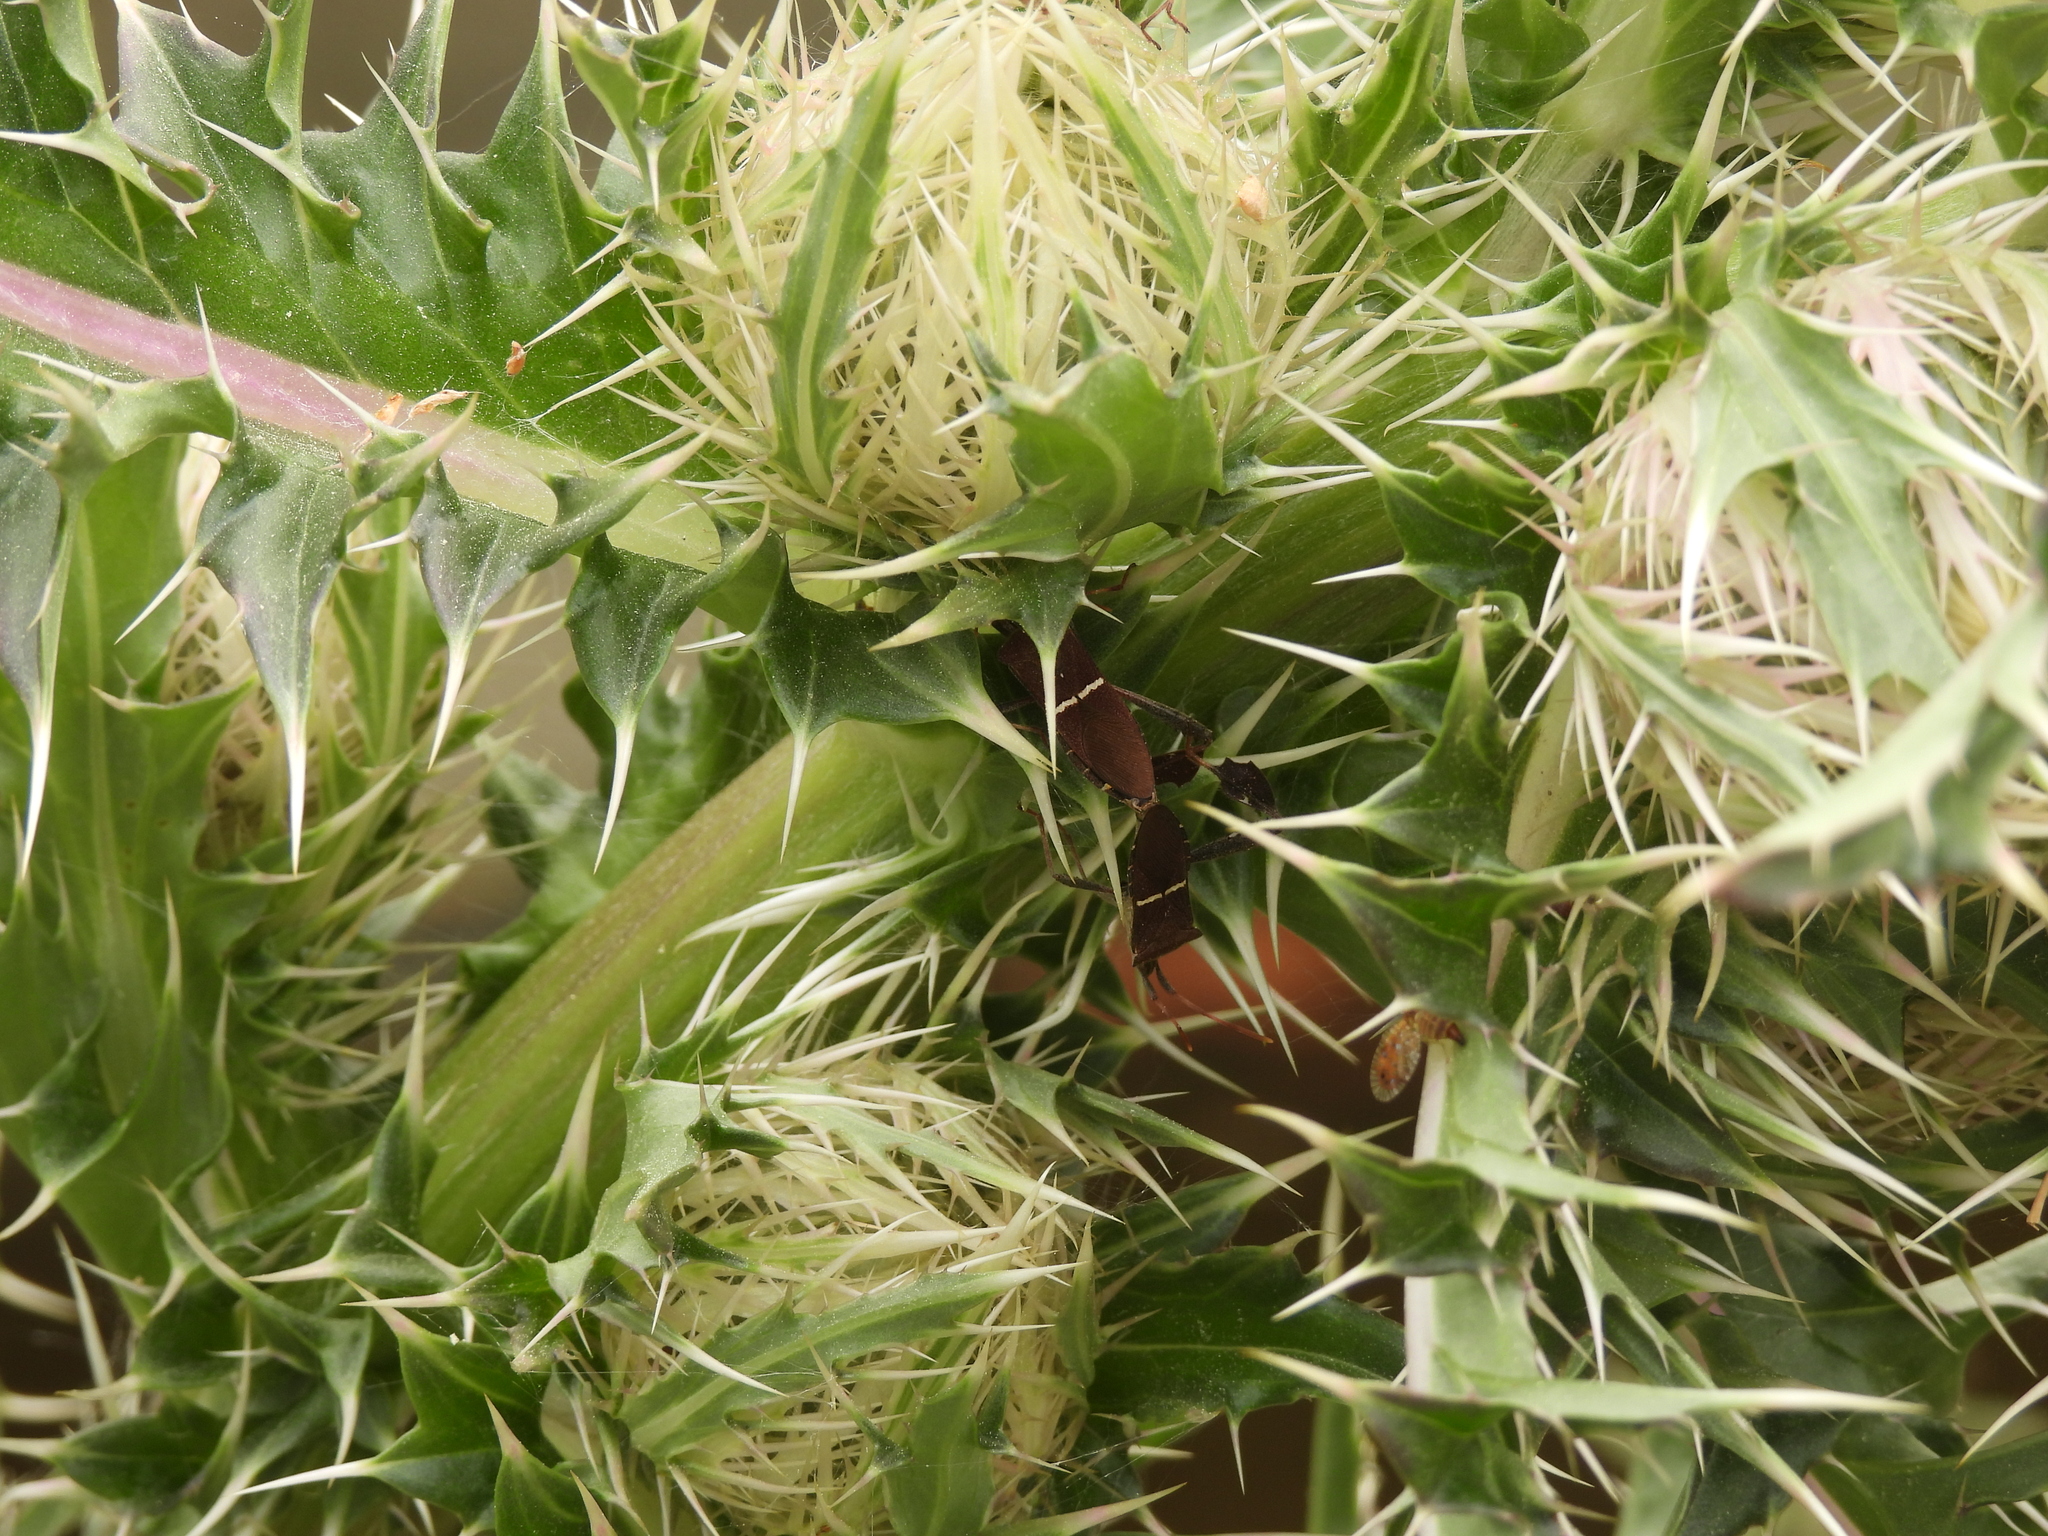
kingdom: Animalia
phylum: Arthropoda
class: Insecta
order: Hemiptera
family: Coreidae
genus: Leptoglossus
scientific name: Leptoglossus phyllopus
